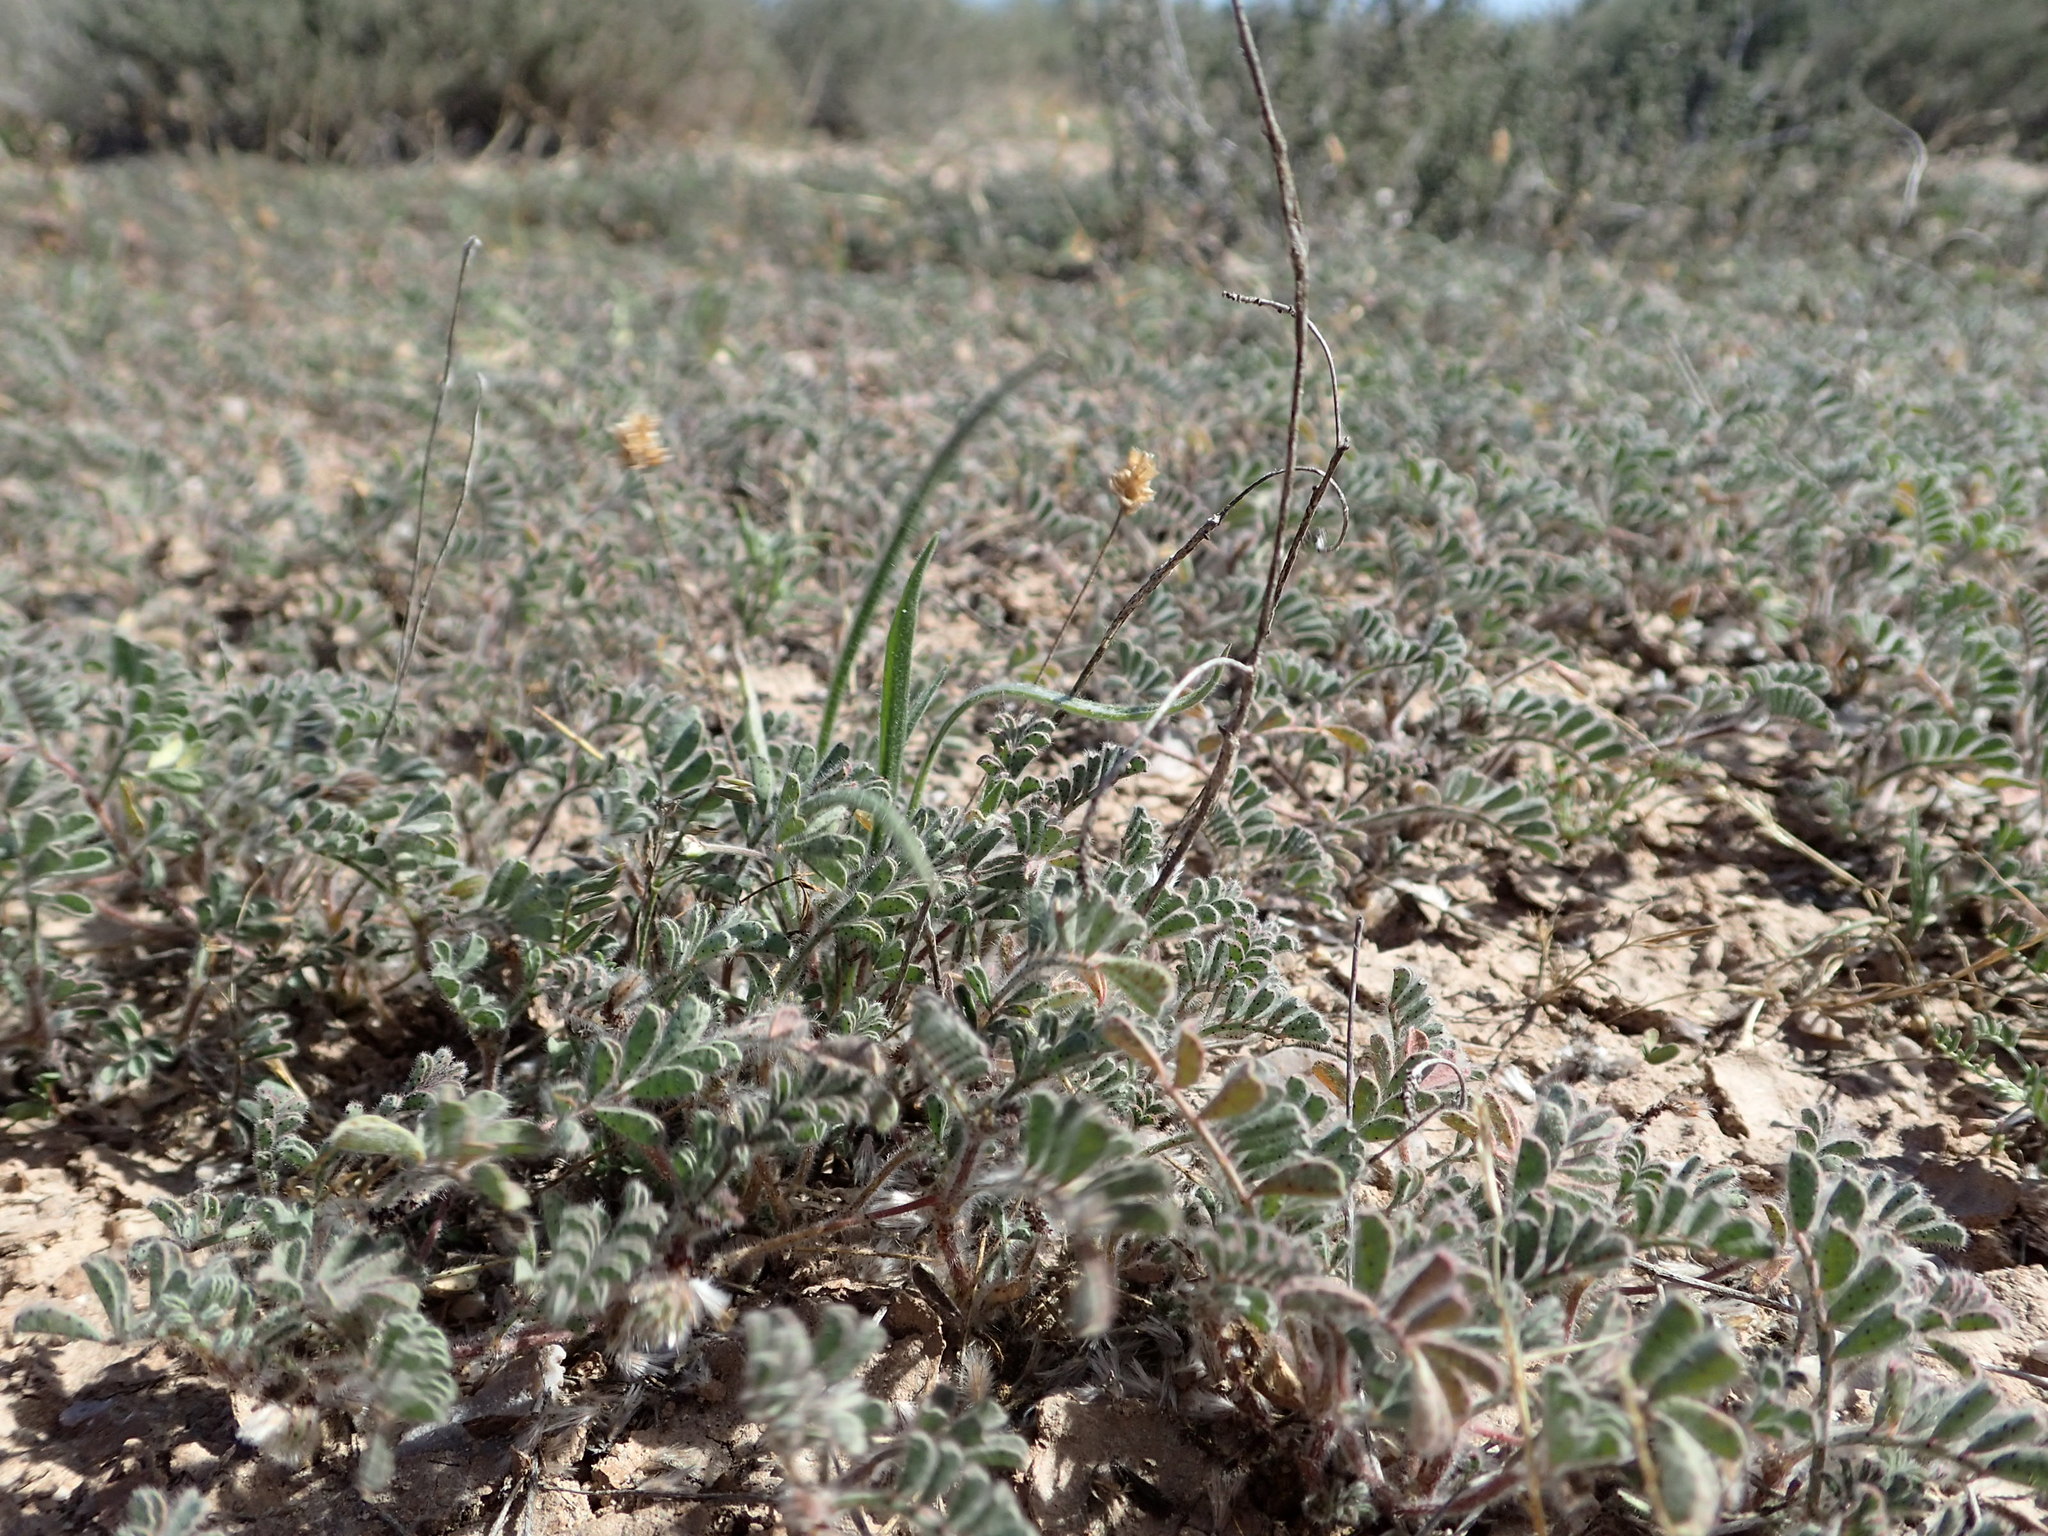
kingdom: Plantae
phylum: Tracheophyta
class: Magnoliopsida
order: Lamiales
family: Plantaginaceae
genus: Plantago
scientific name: Plantago ovata
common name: Blond plantain
